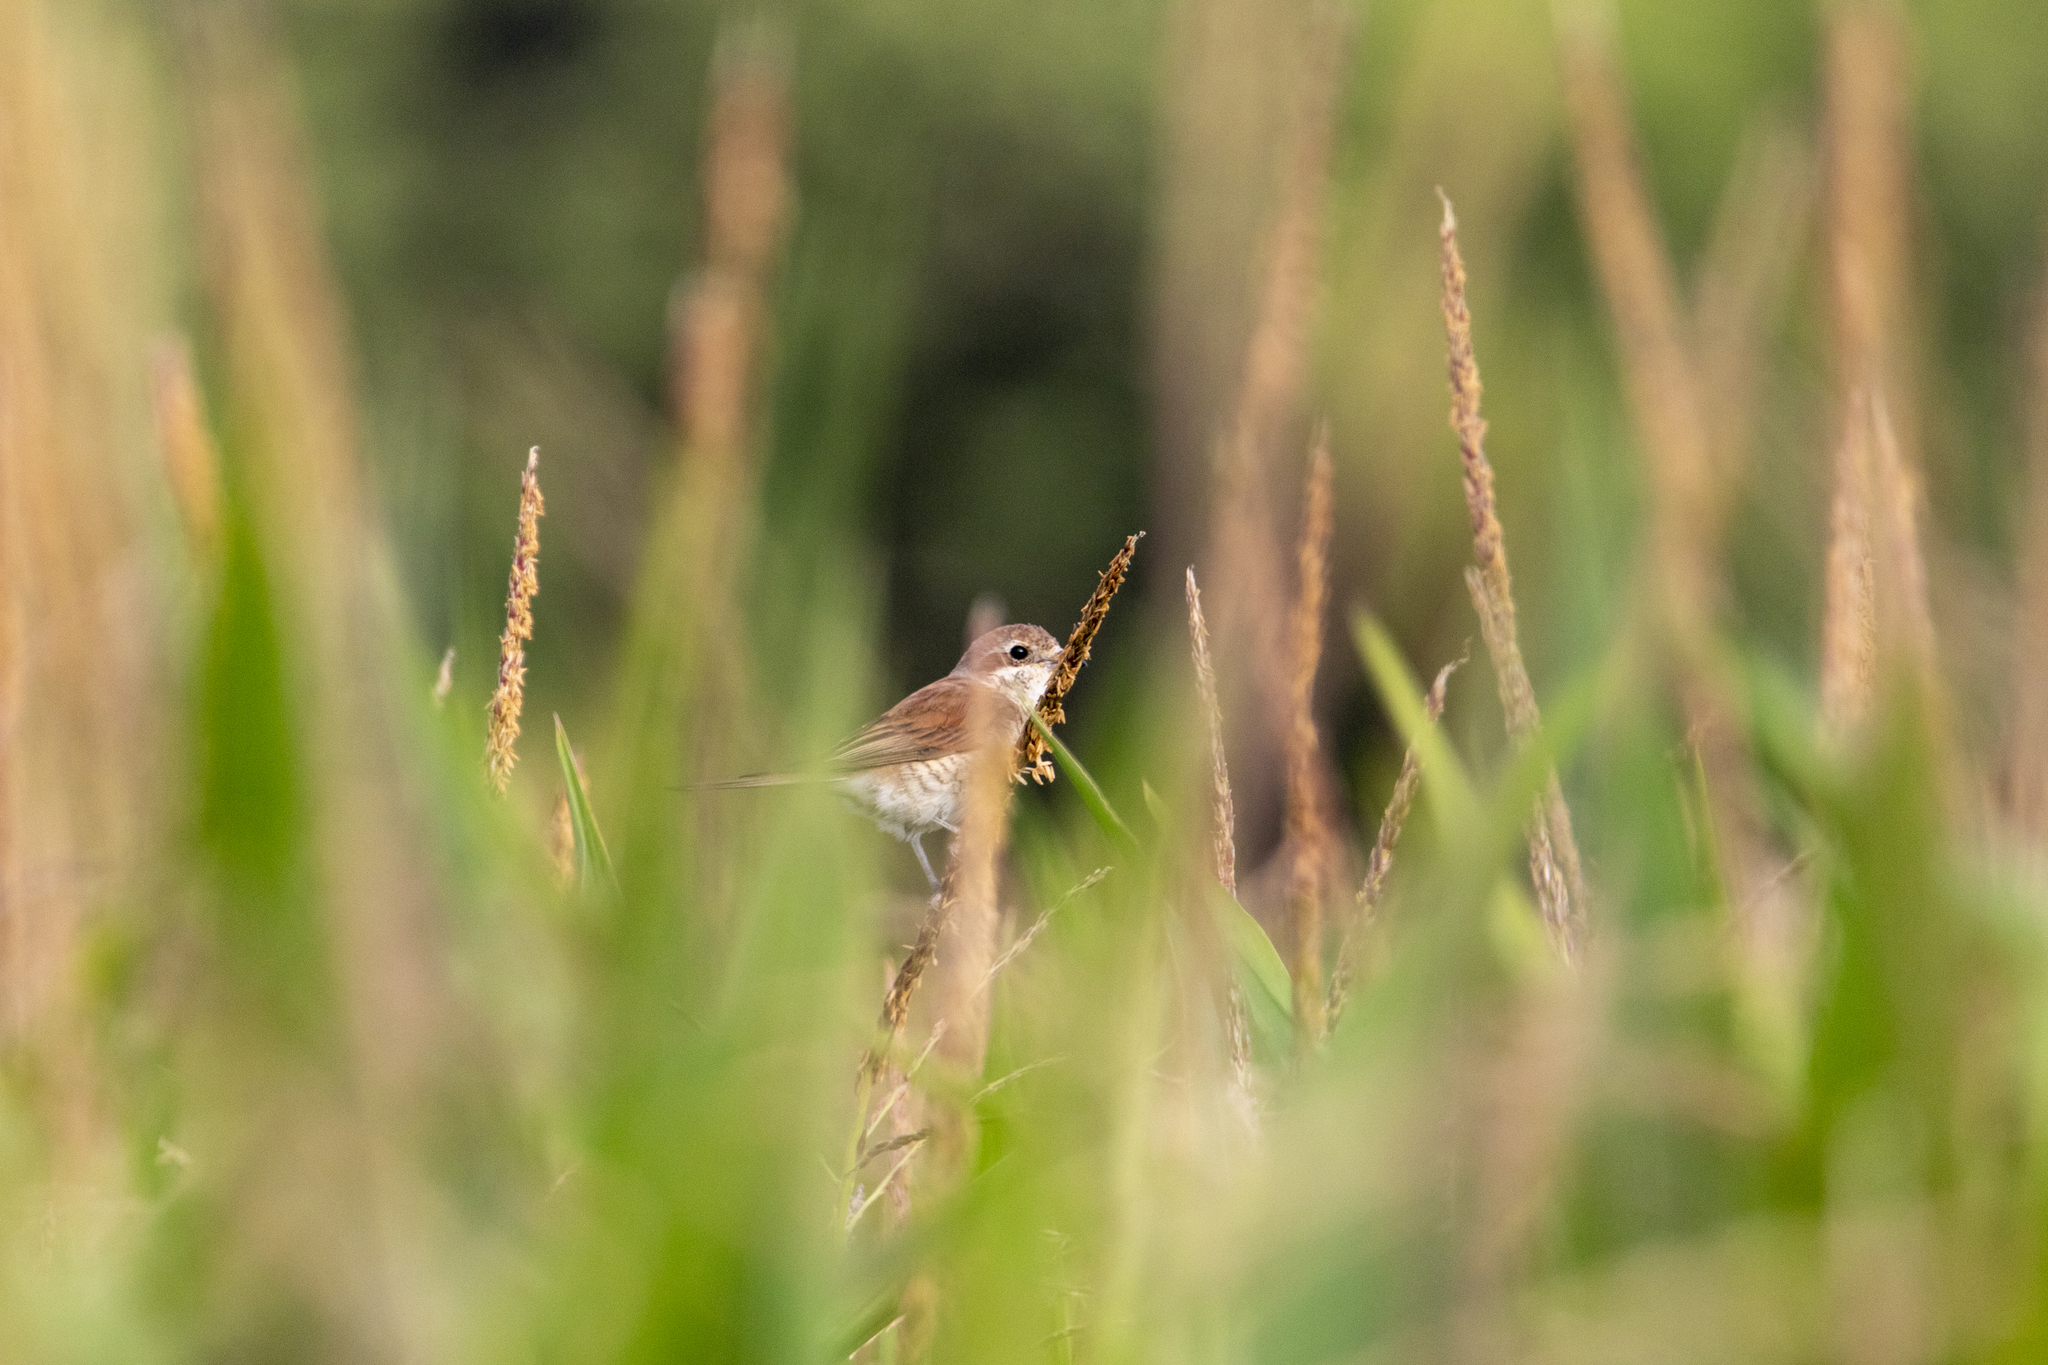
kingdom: Animalia
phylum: Chordata
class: Aves
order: Passeriformes
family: Laniidae
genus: Lanius
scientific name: Lanius collurio
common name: Red-backed shrike
